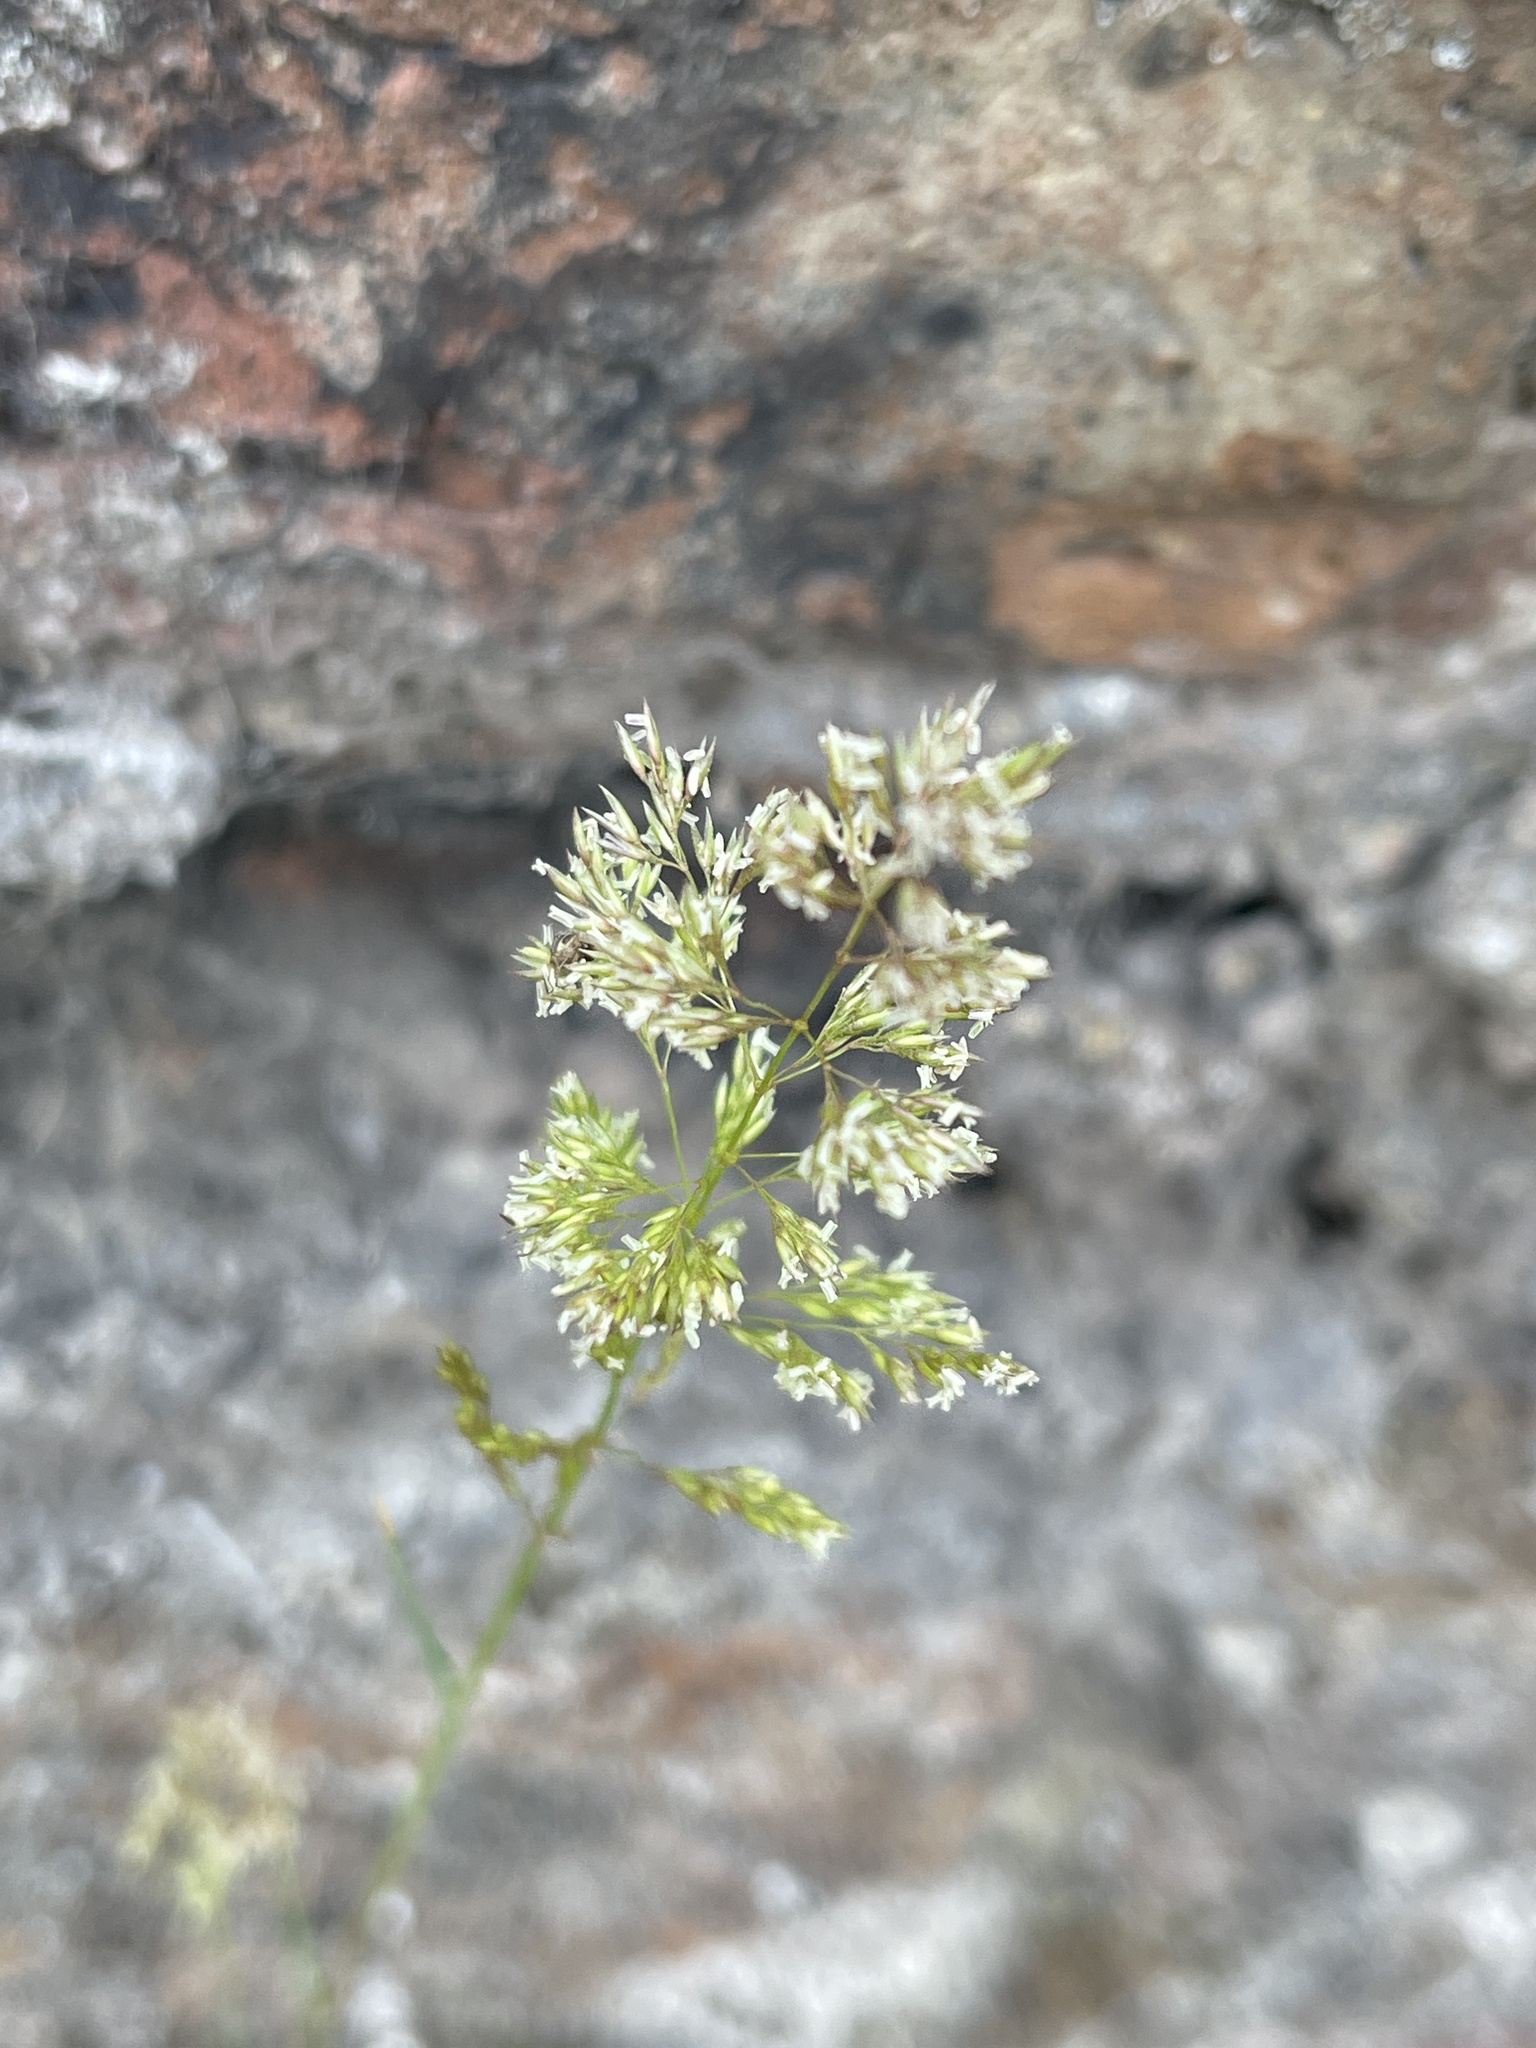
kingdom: Plantae
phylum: Tracheophyta
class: Liliopsida
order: Poales
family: Poaceae
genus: Polypogon
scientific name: Polypogon viridis
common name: Water bent
